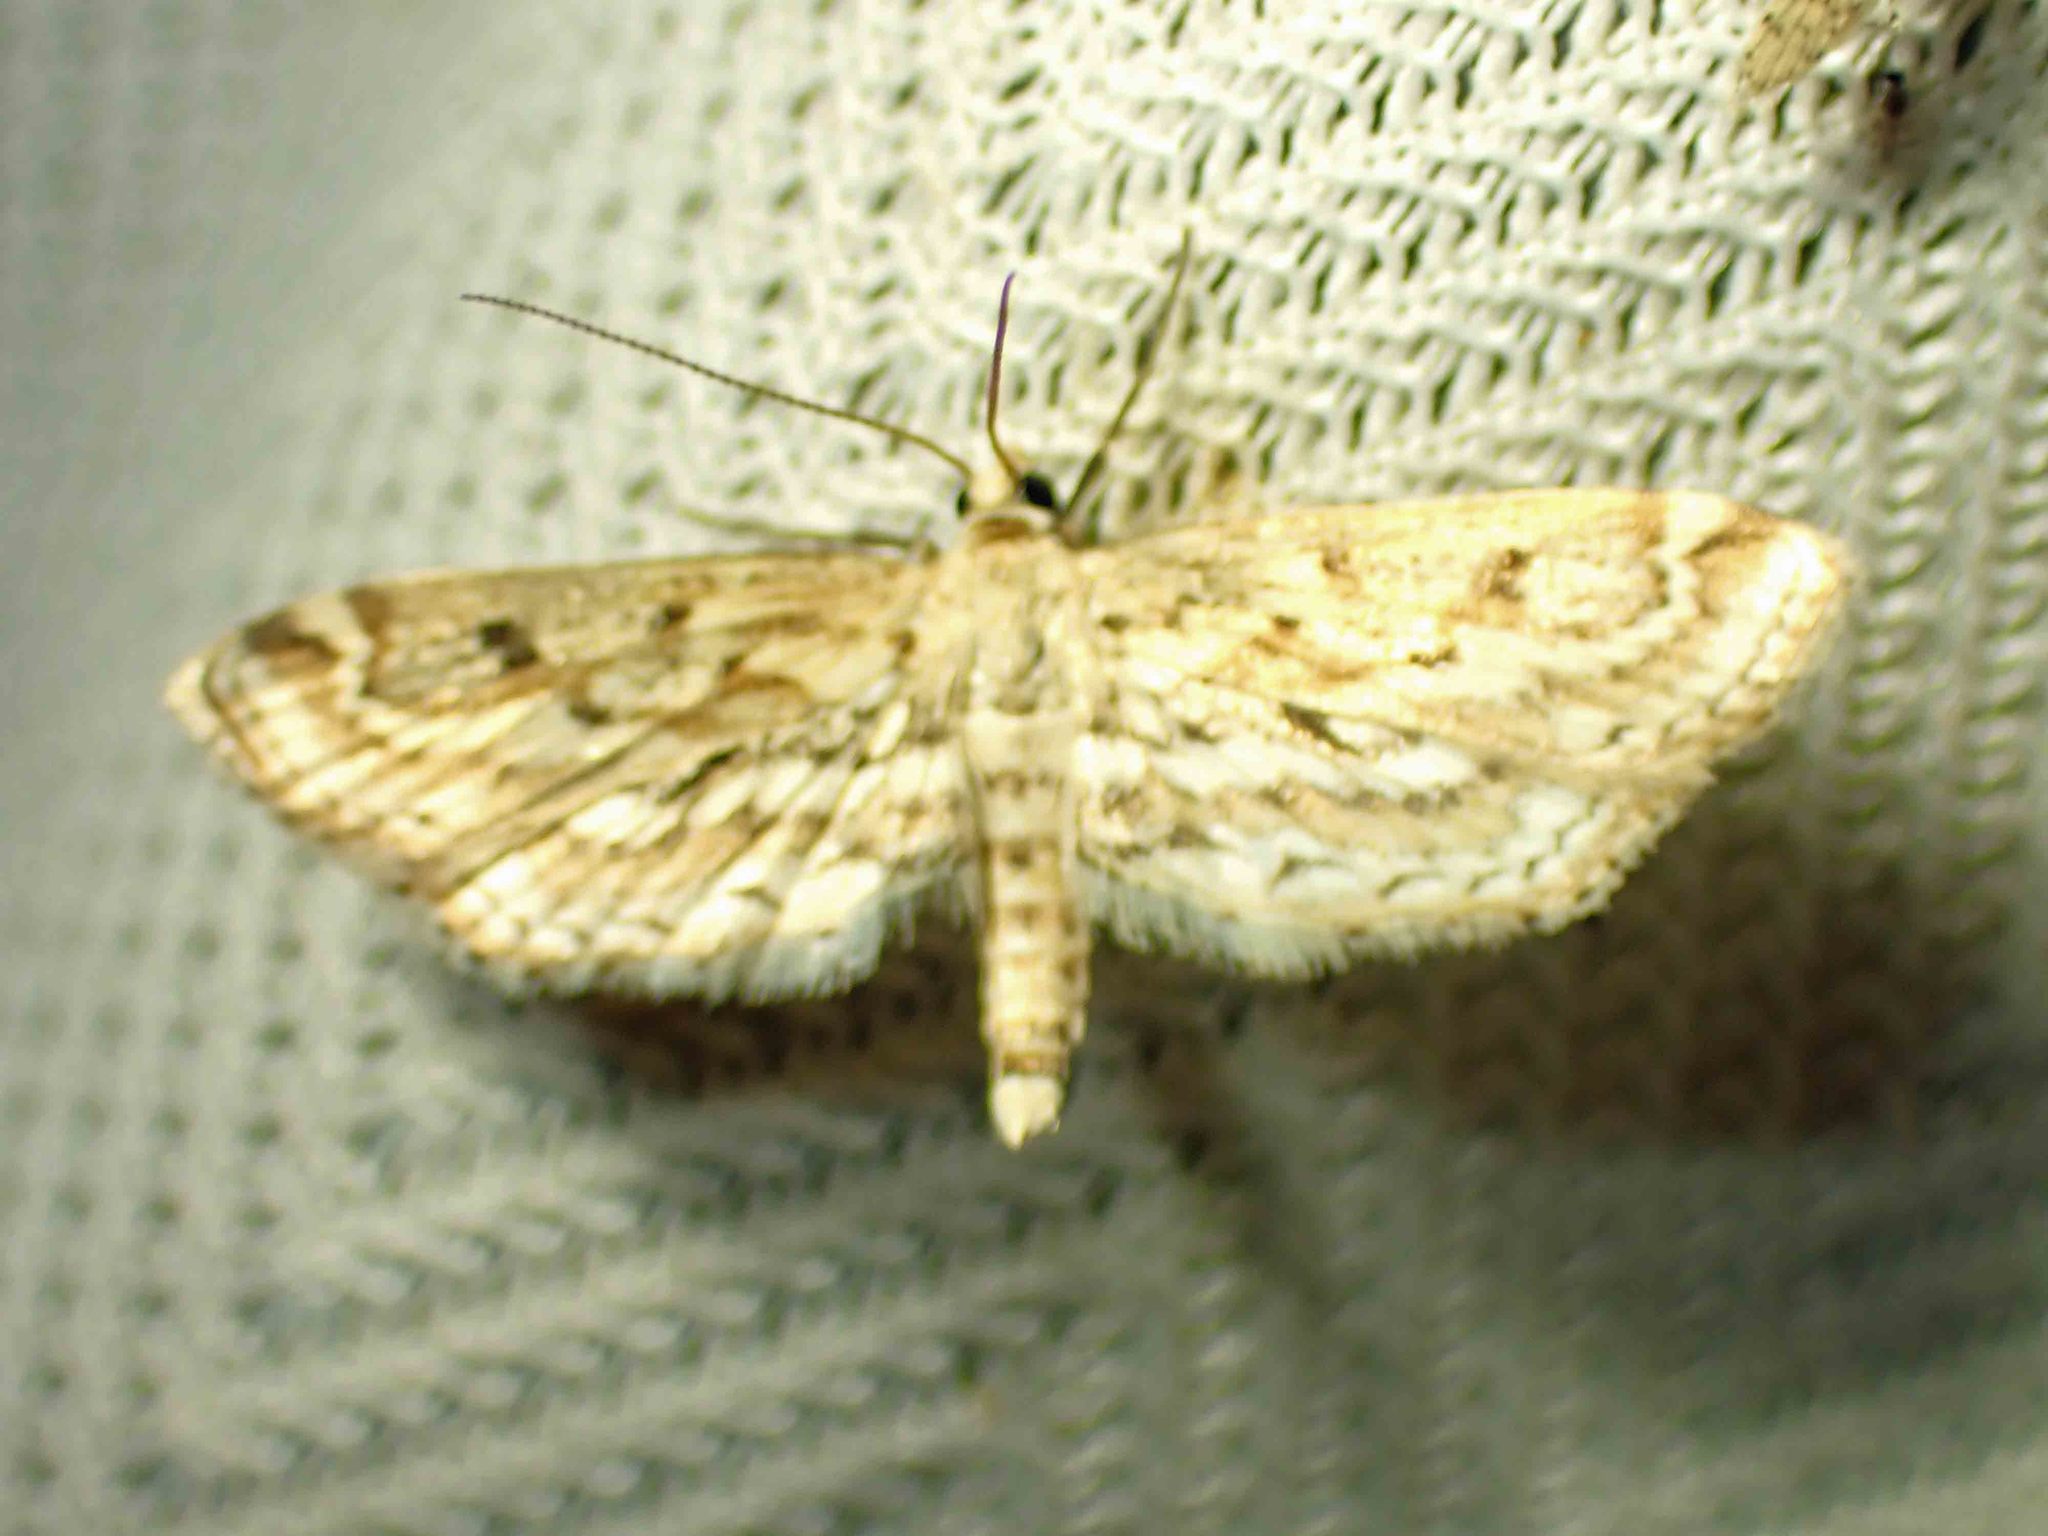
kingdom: Animalia
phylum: Arthropoda
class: Insecta
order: Lepidoptera
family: Crambidae
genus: Parapoynx
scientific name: Parapoynx allionealis
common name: Bladderwort casemaker
